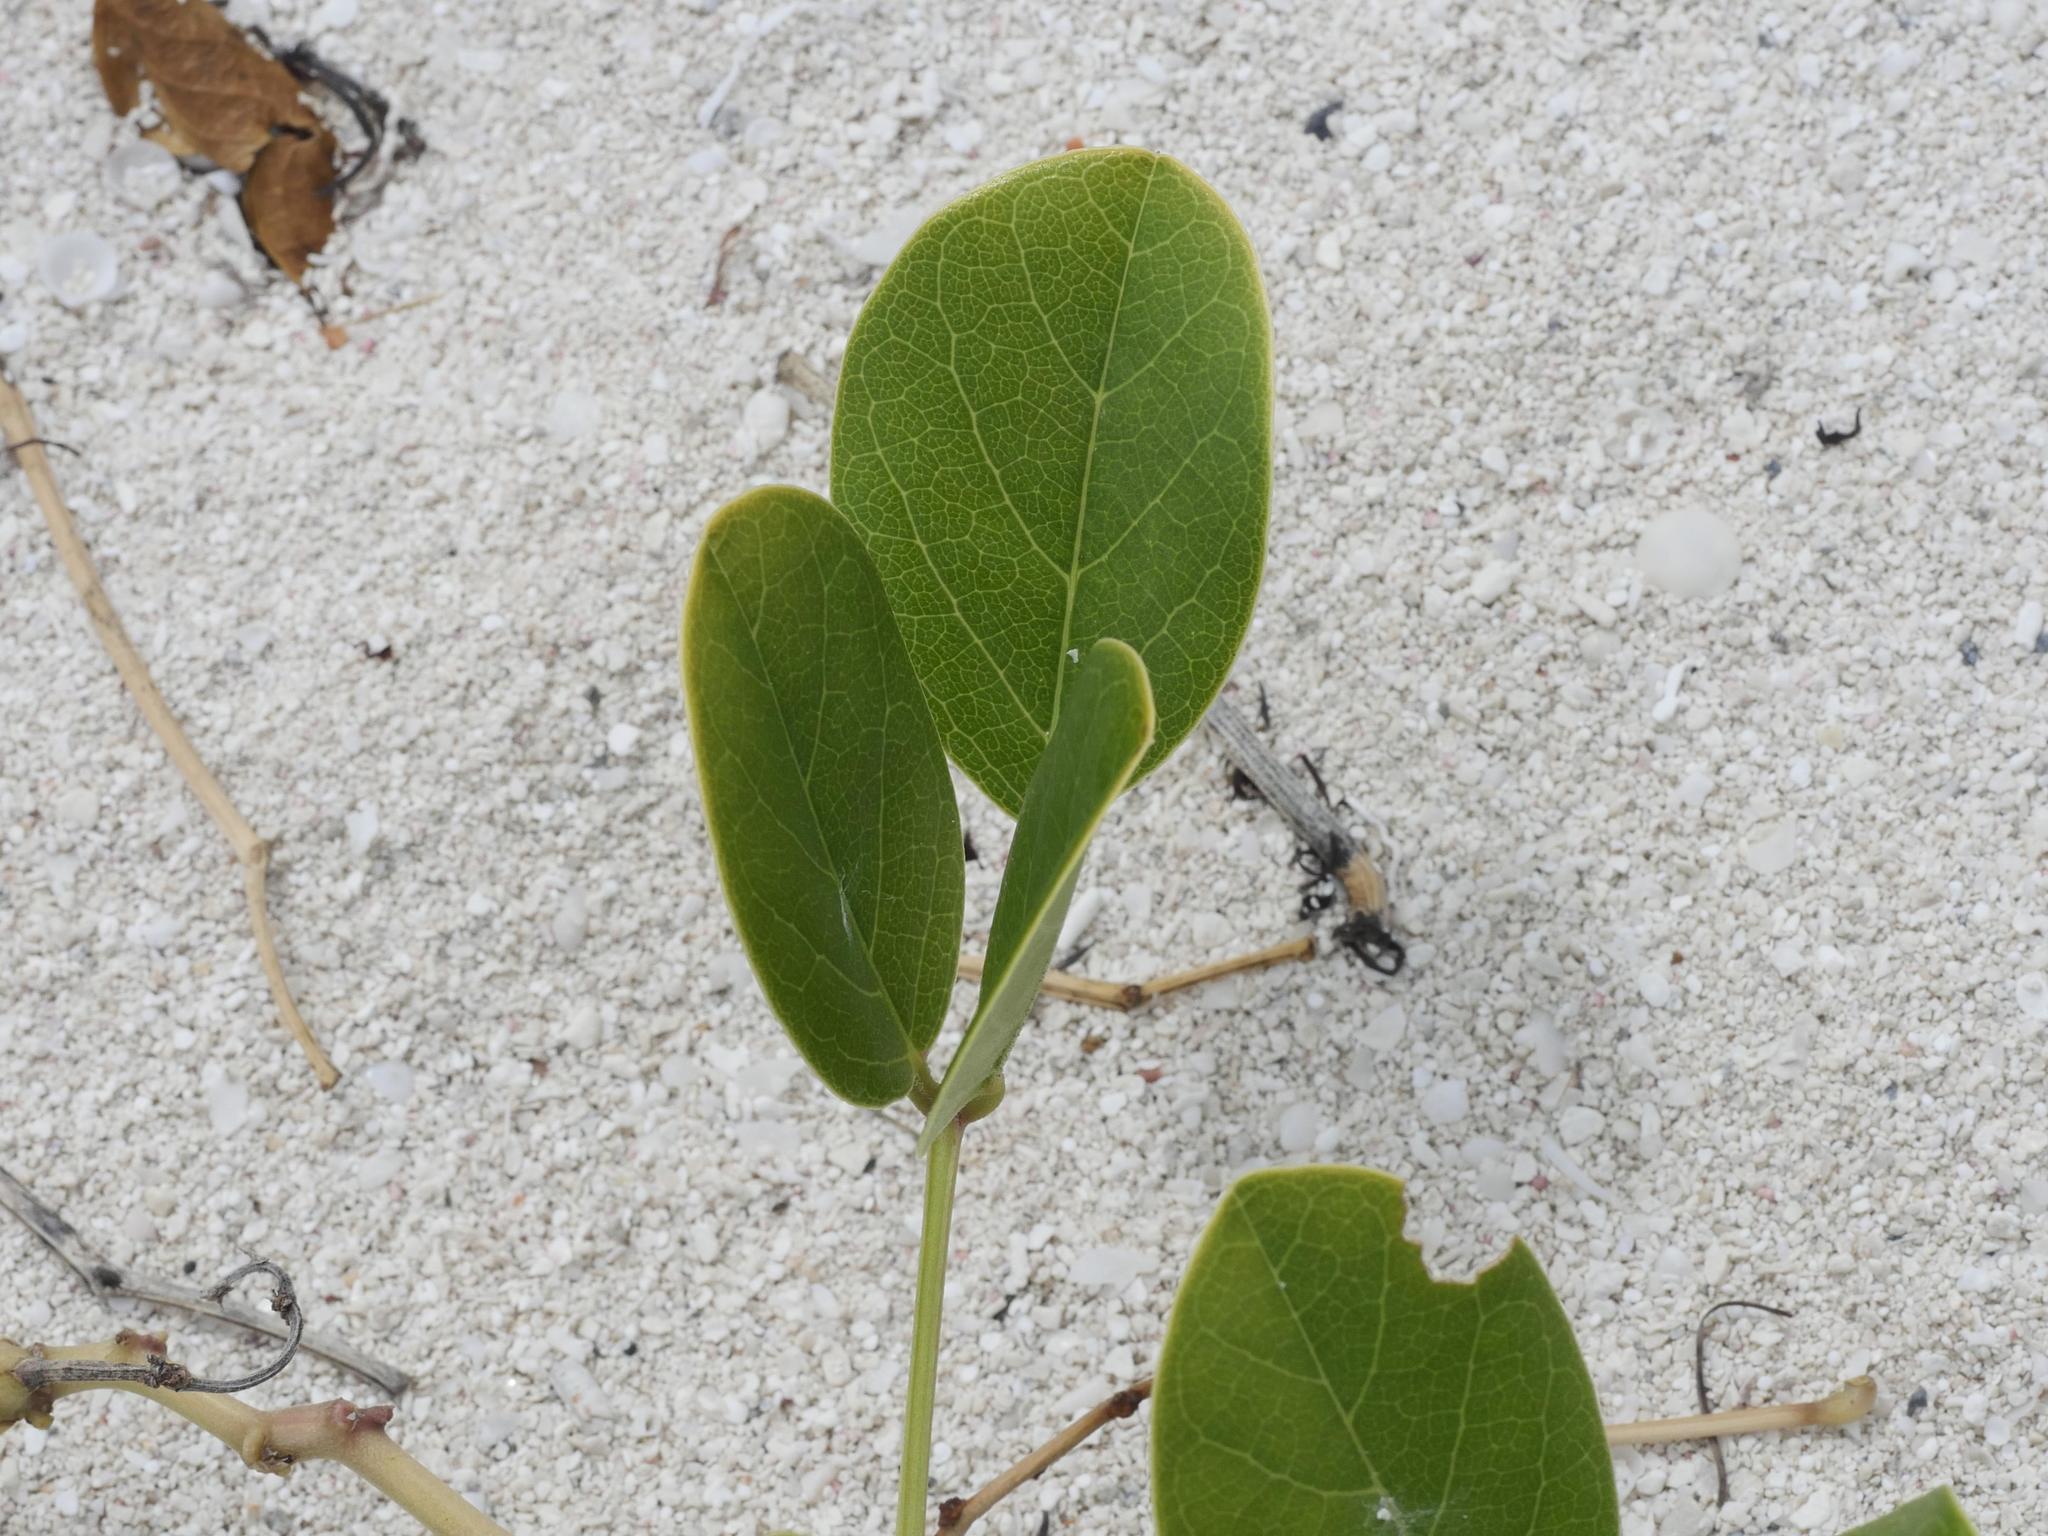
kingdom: Plantae
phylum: Tracheophyta
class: Magnoliopsida
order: Fabales
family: Fabaceae
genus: Canavalia
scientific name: Canavalia rosea
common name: Beach-bean
